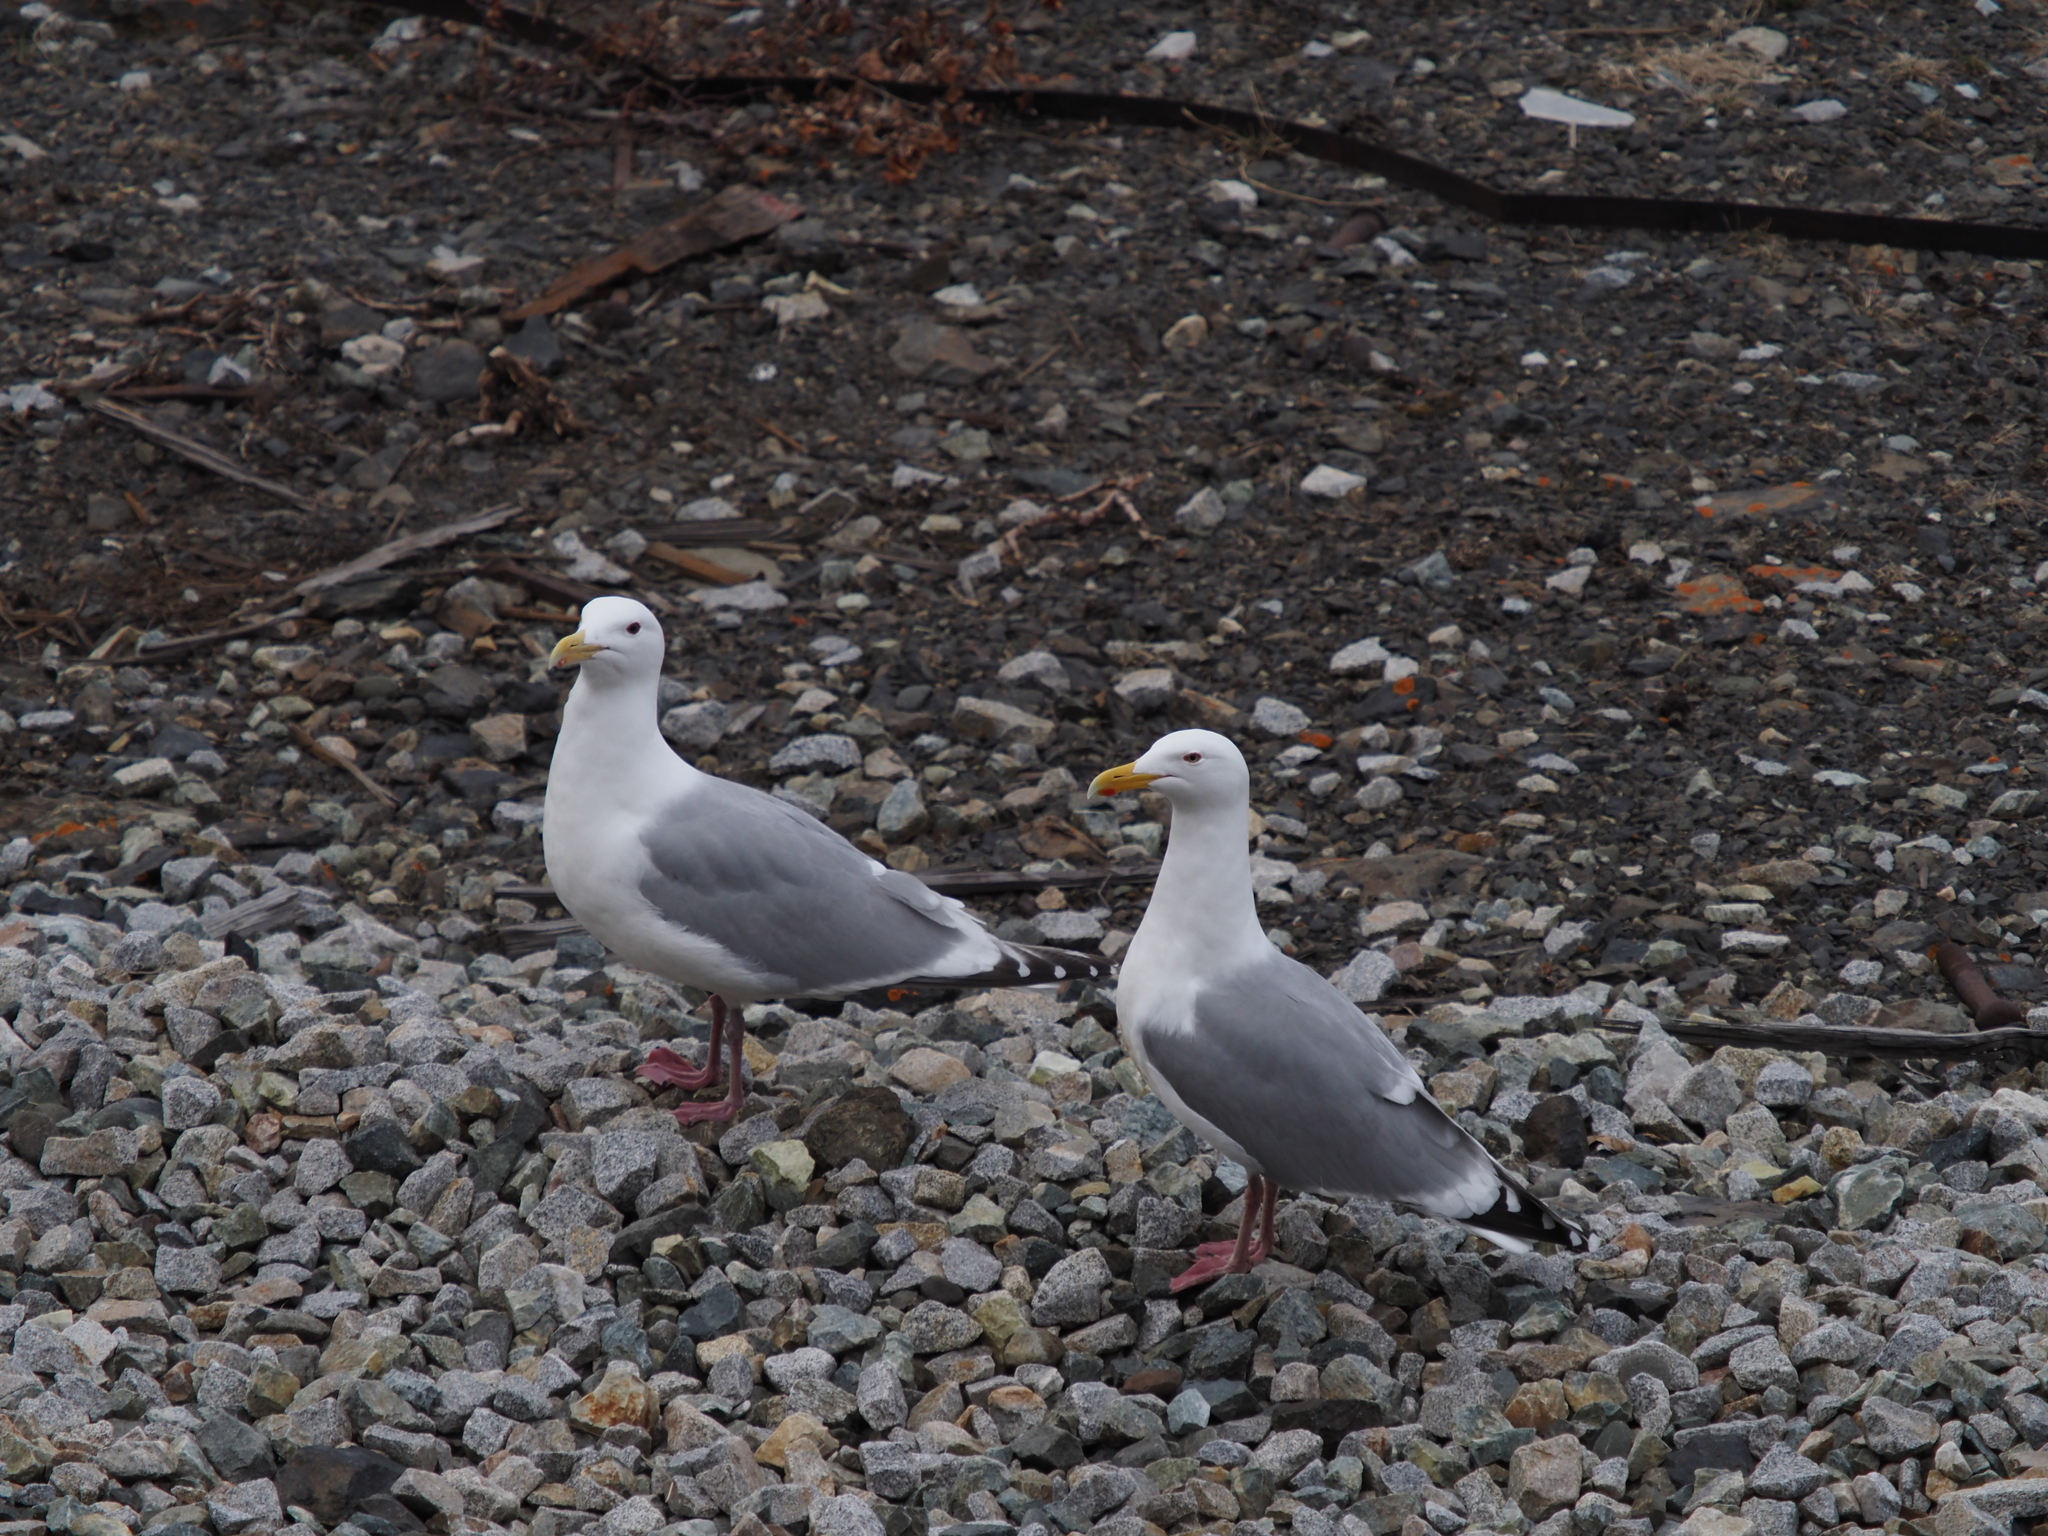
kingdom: Animalia
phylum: Chordata
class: Aves
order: Charadriiformes
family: Laridae
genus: Larus
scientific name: Larus
